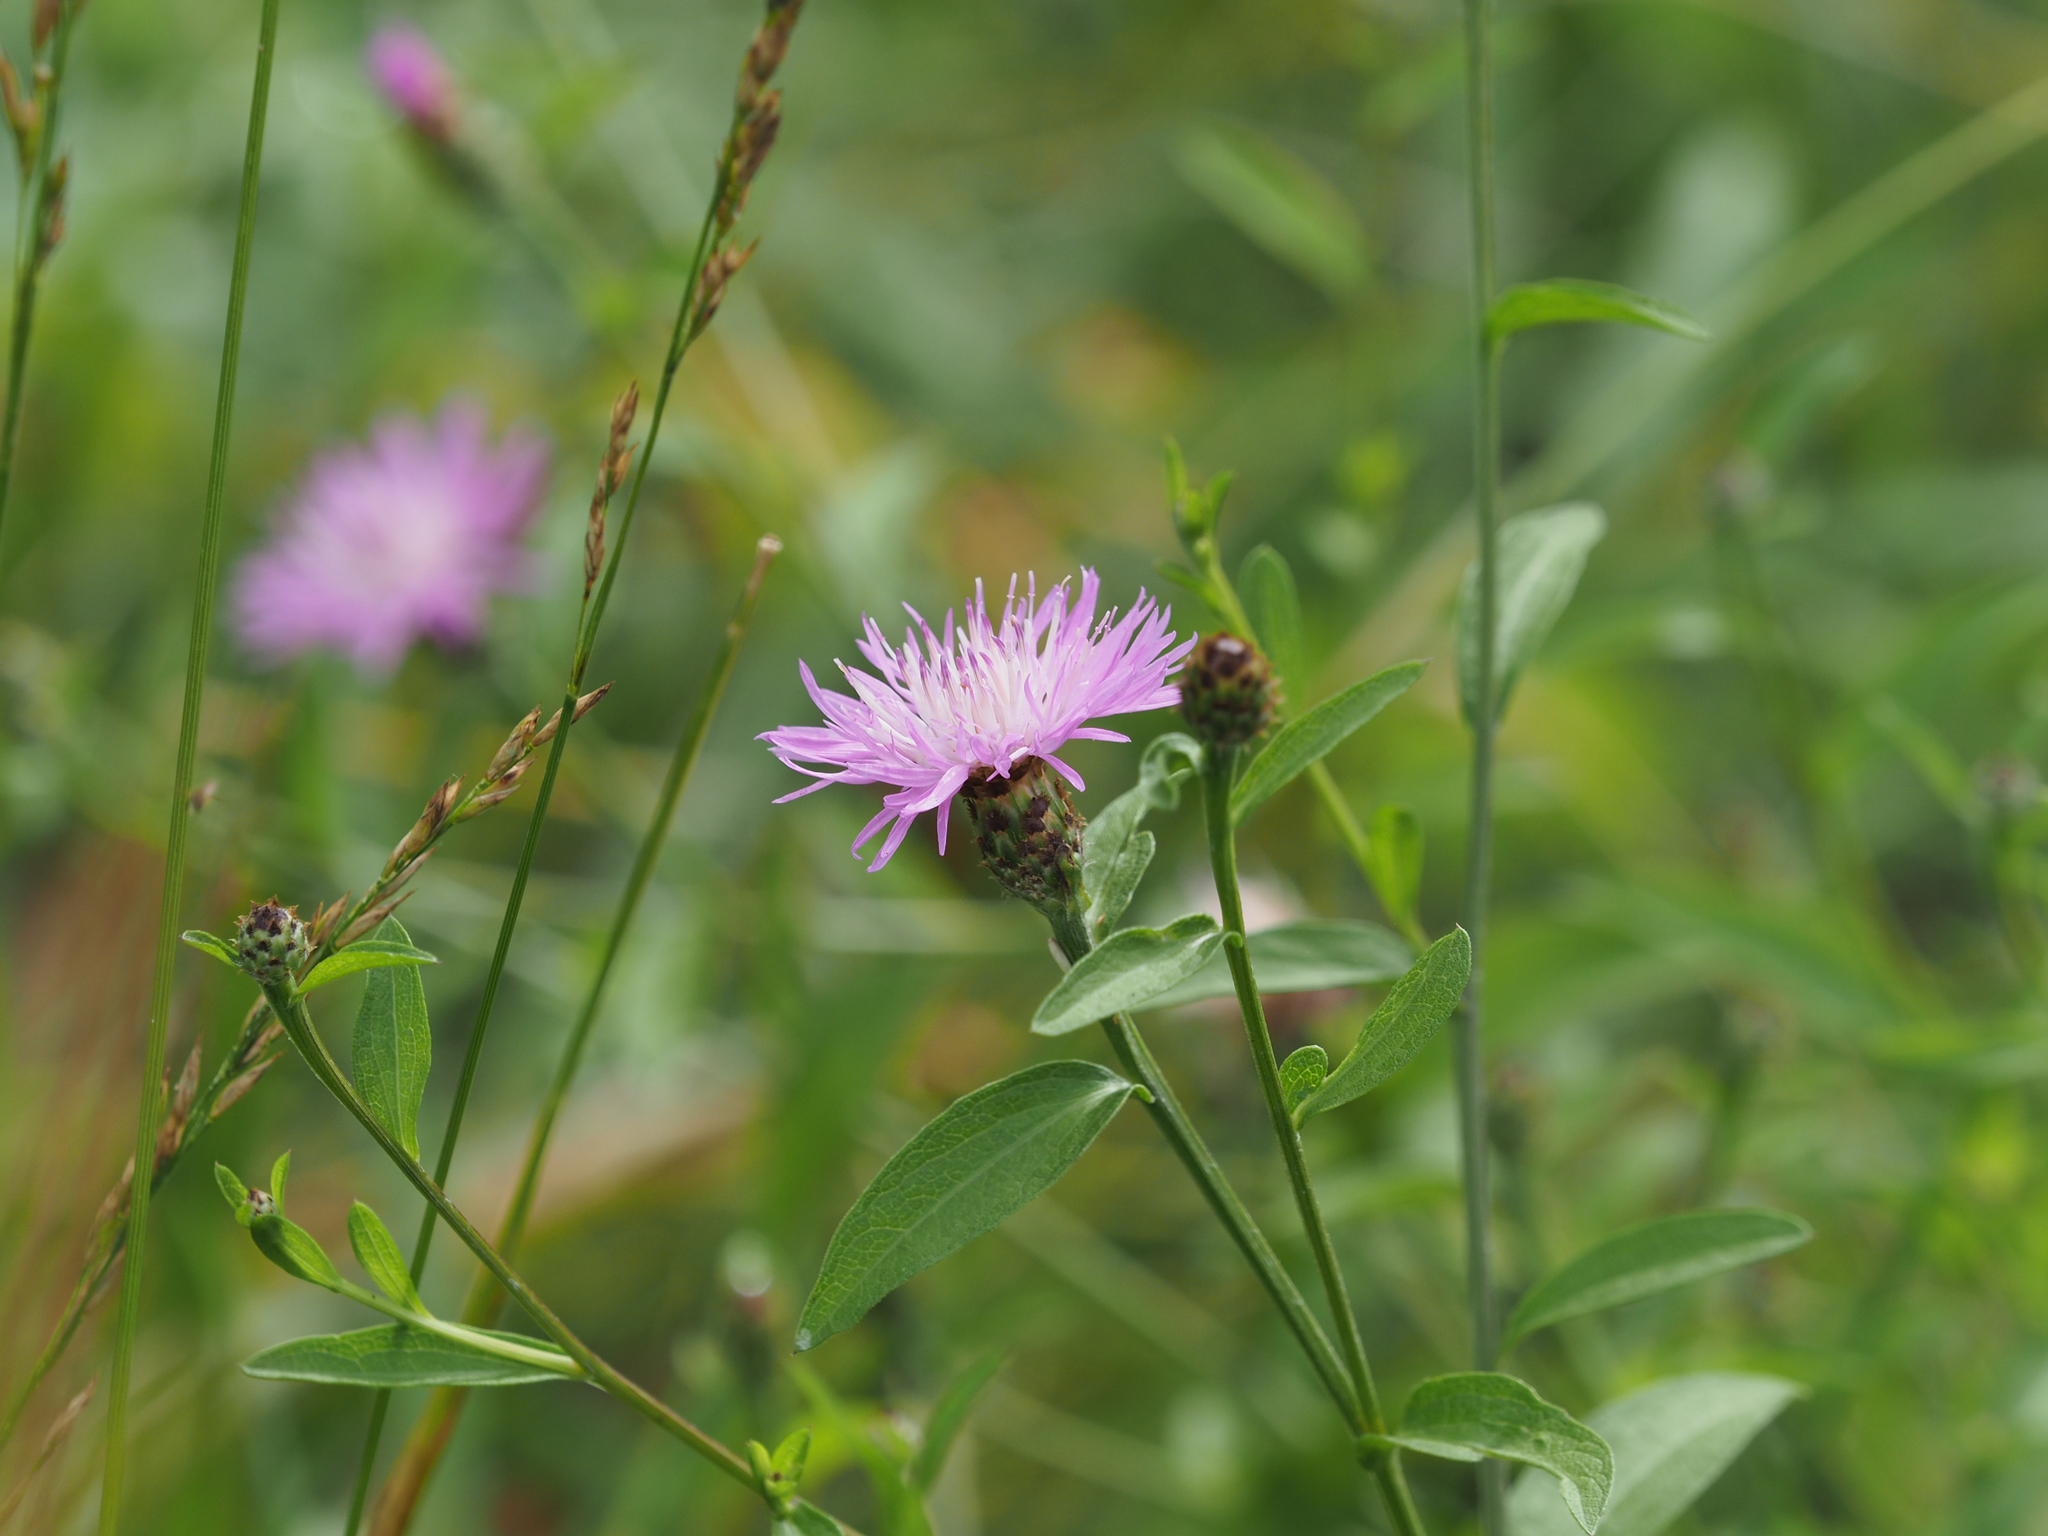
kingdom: Plantae
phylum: Tracheophyta
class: Magnoliopsida
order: Asterales
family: Asteraceae
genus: Centaurea
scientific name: Centaurea nigrescens
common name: Tyrol knapweed
